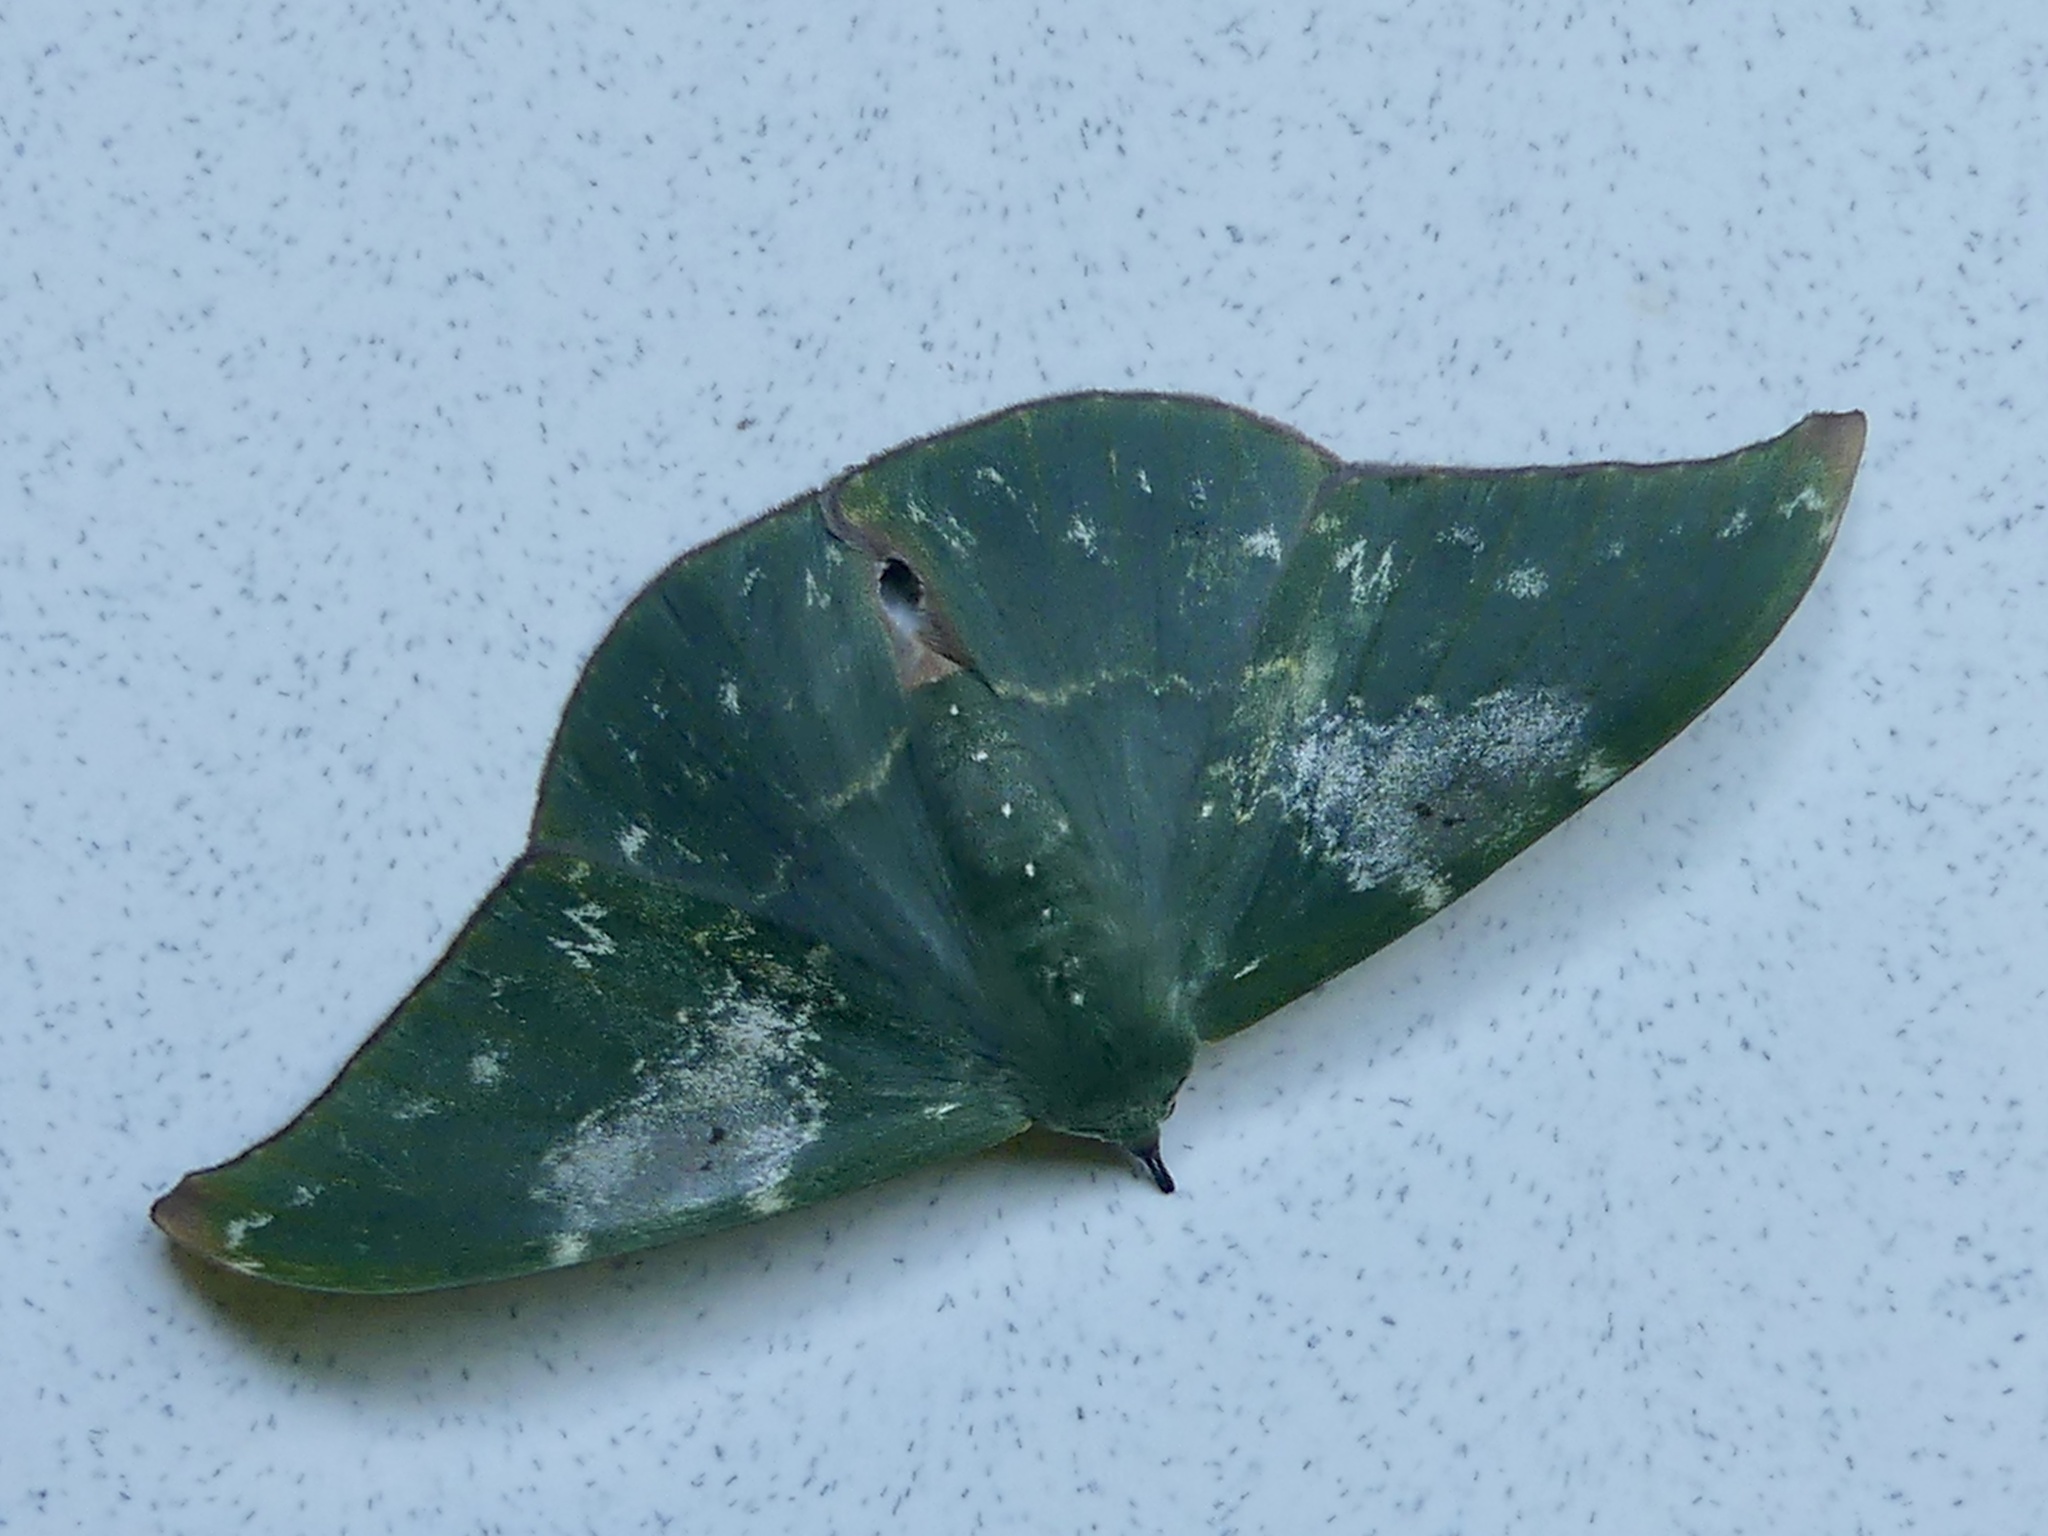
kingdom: Animalia
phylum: Arthropoda
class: Insecta
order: Lepidoptera
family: Geometridae
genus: Tanaorhinus
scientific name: Tanaorhinus rafflesii
